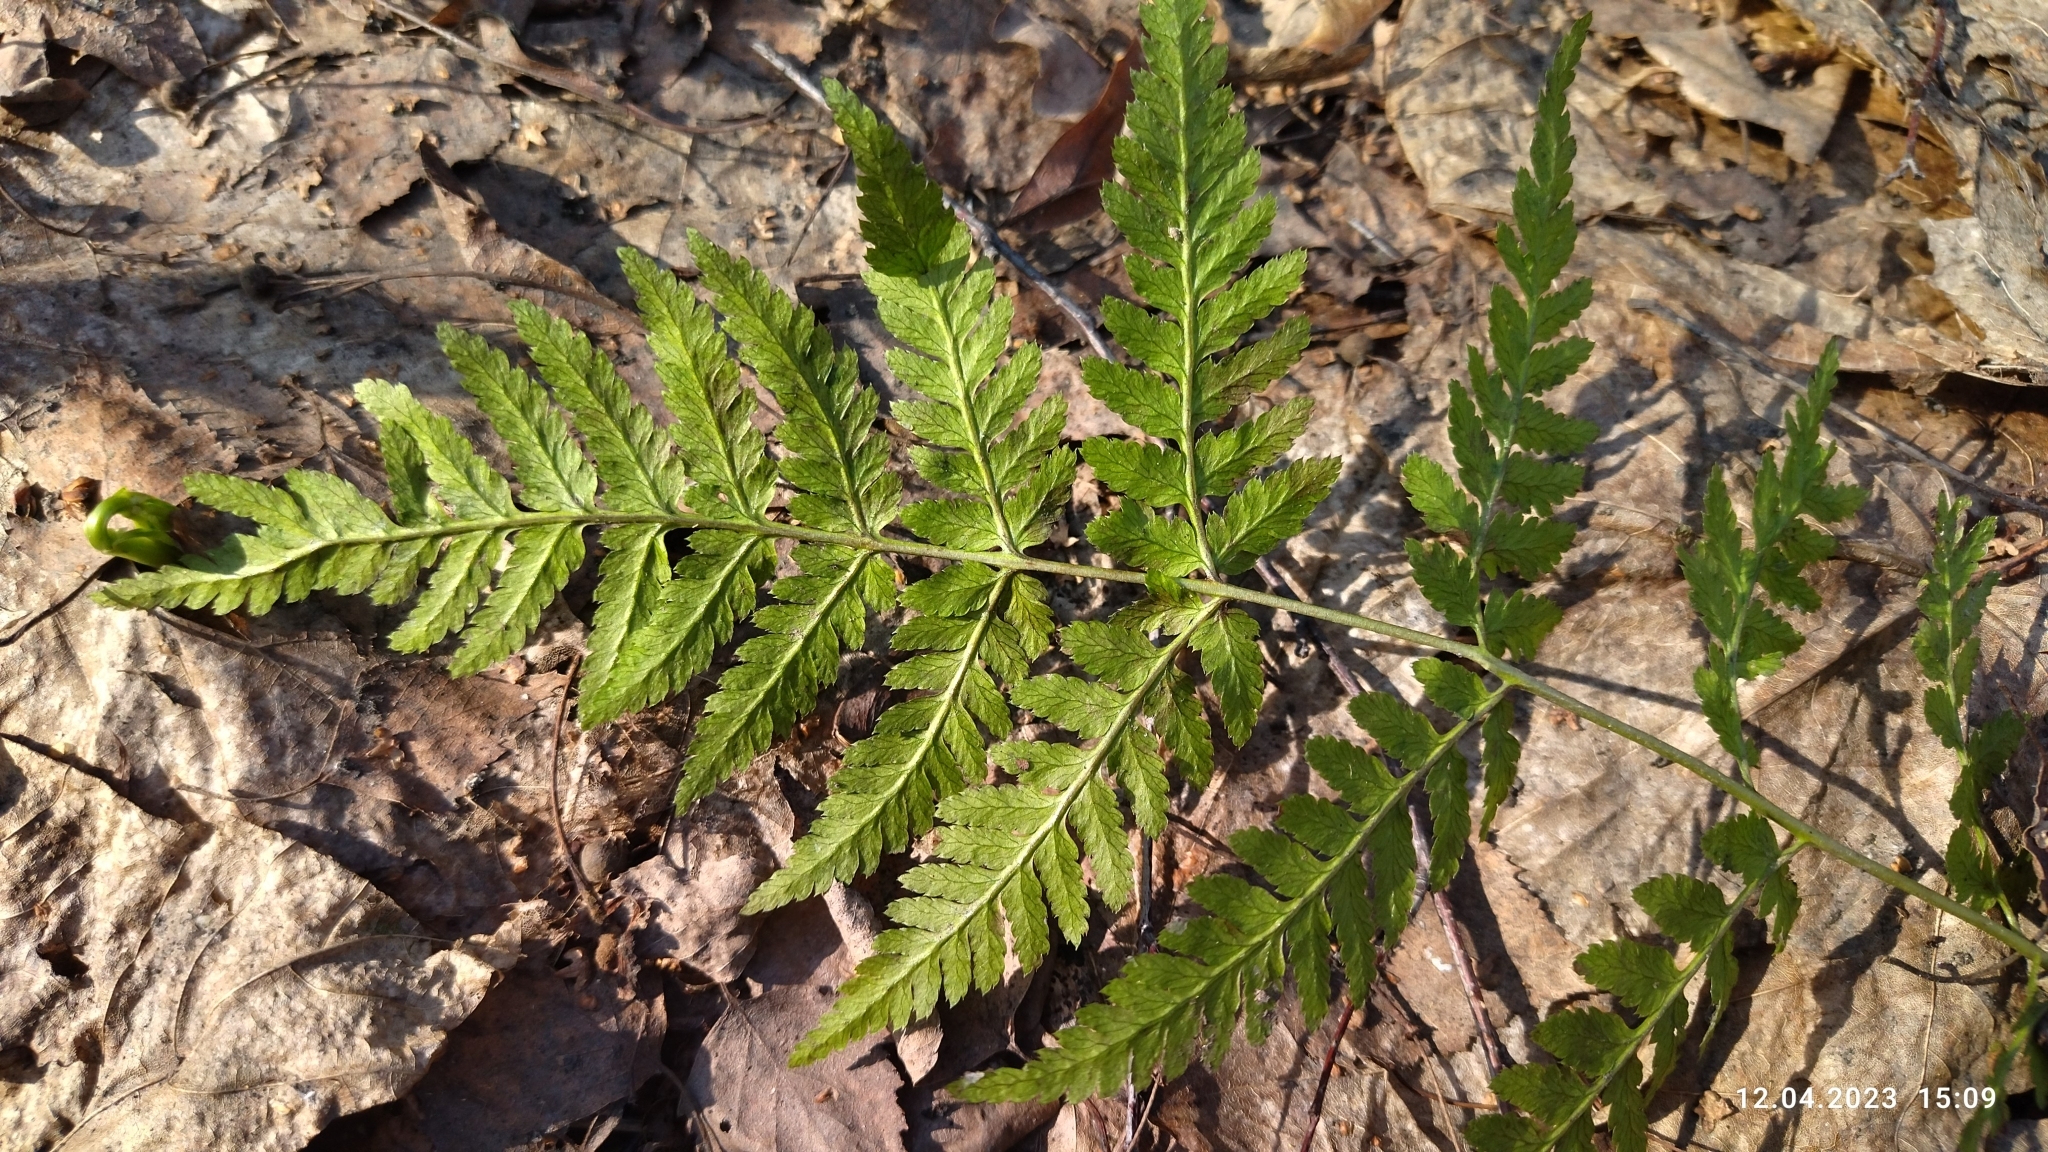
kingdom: Plantae
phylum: Tracheophyta
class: Polypodiopsida
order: Polypodiales
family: Dryopteridaceae
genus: Dryopteris
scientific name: Dryopteris carthusiana
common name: Narrow buckler-fern
